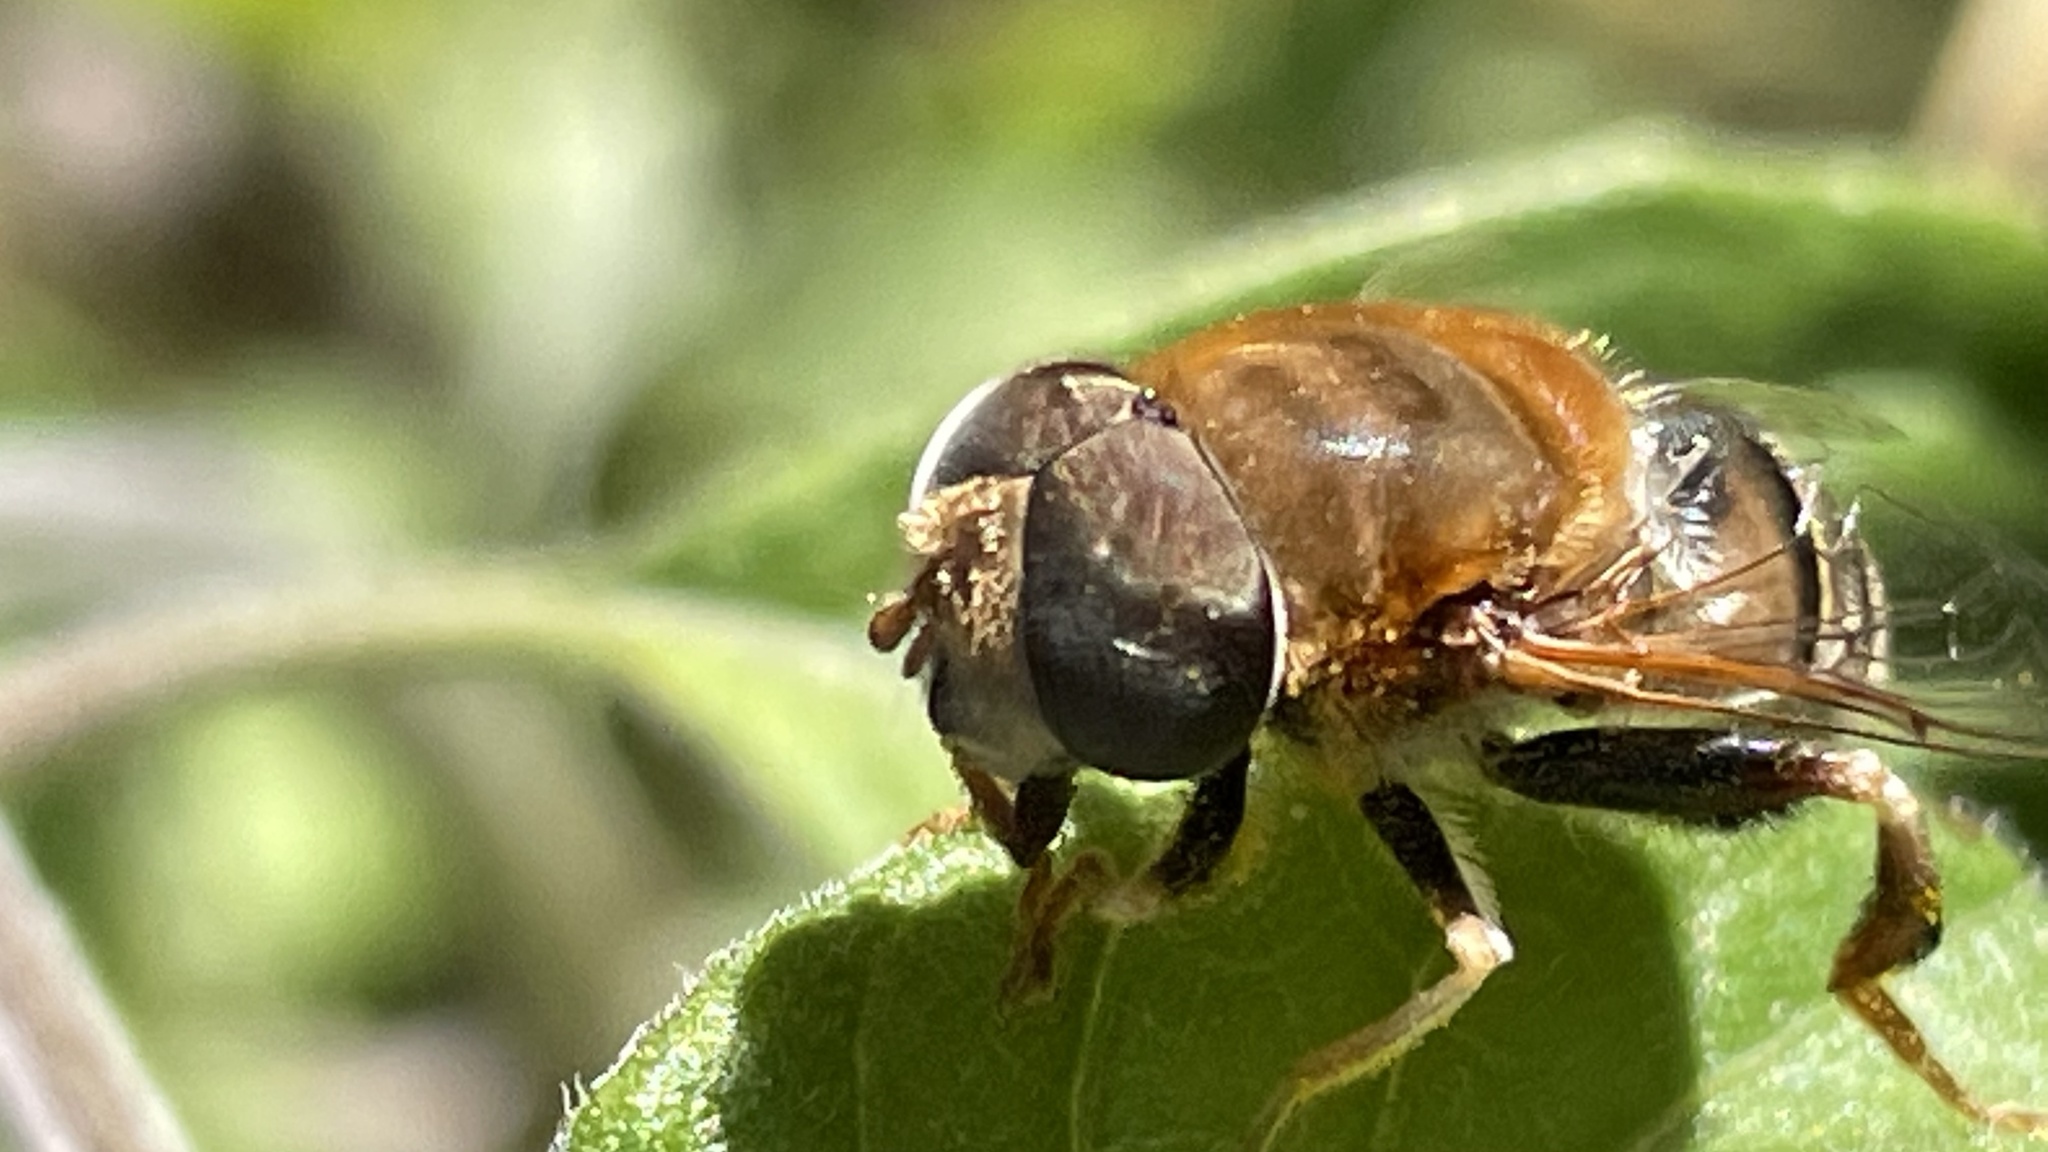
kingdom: Animalia
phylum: Arthropoda
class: Insecta
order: Diptera
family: Syrphidae
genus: Palpada
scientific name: Palpada mexicana
